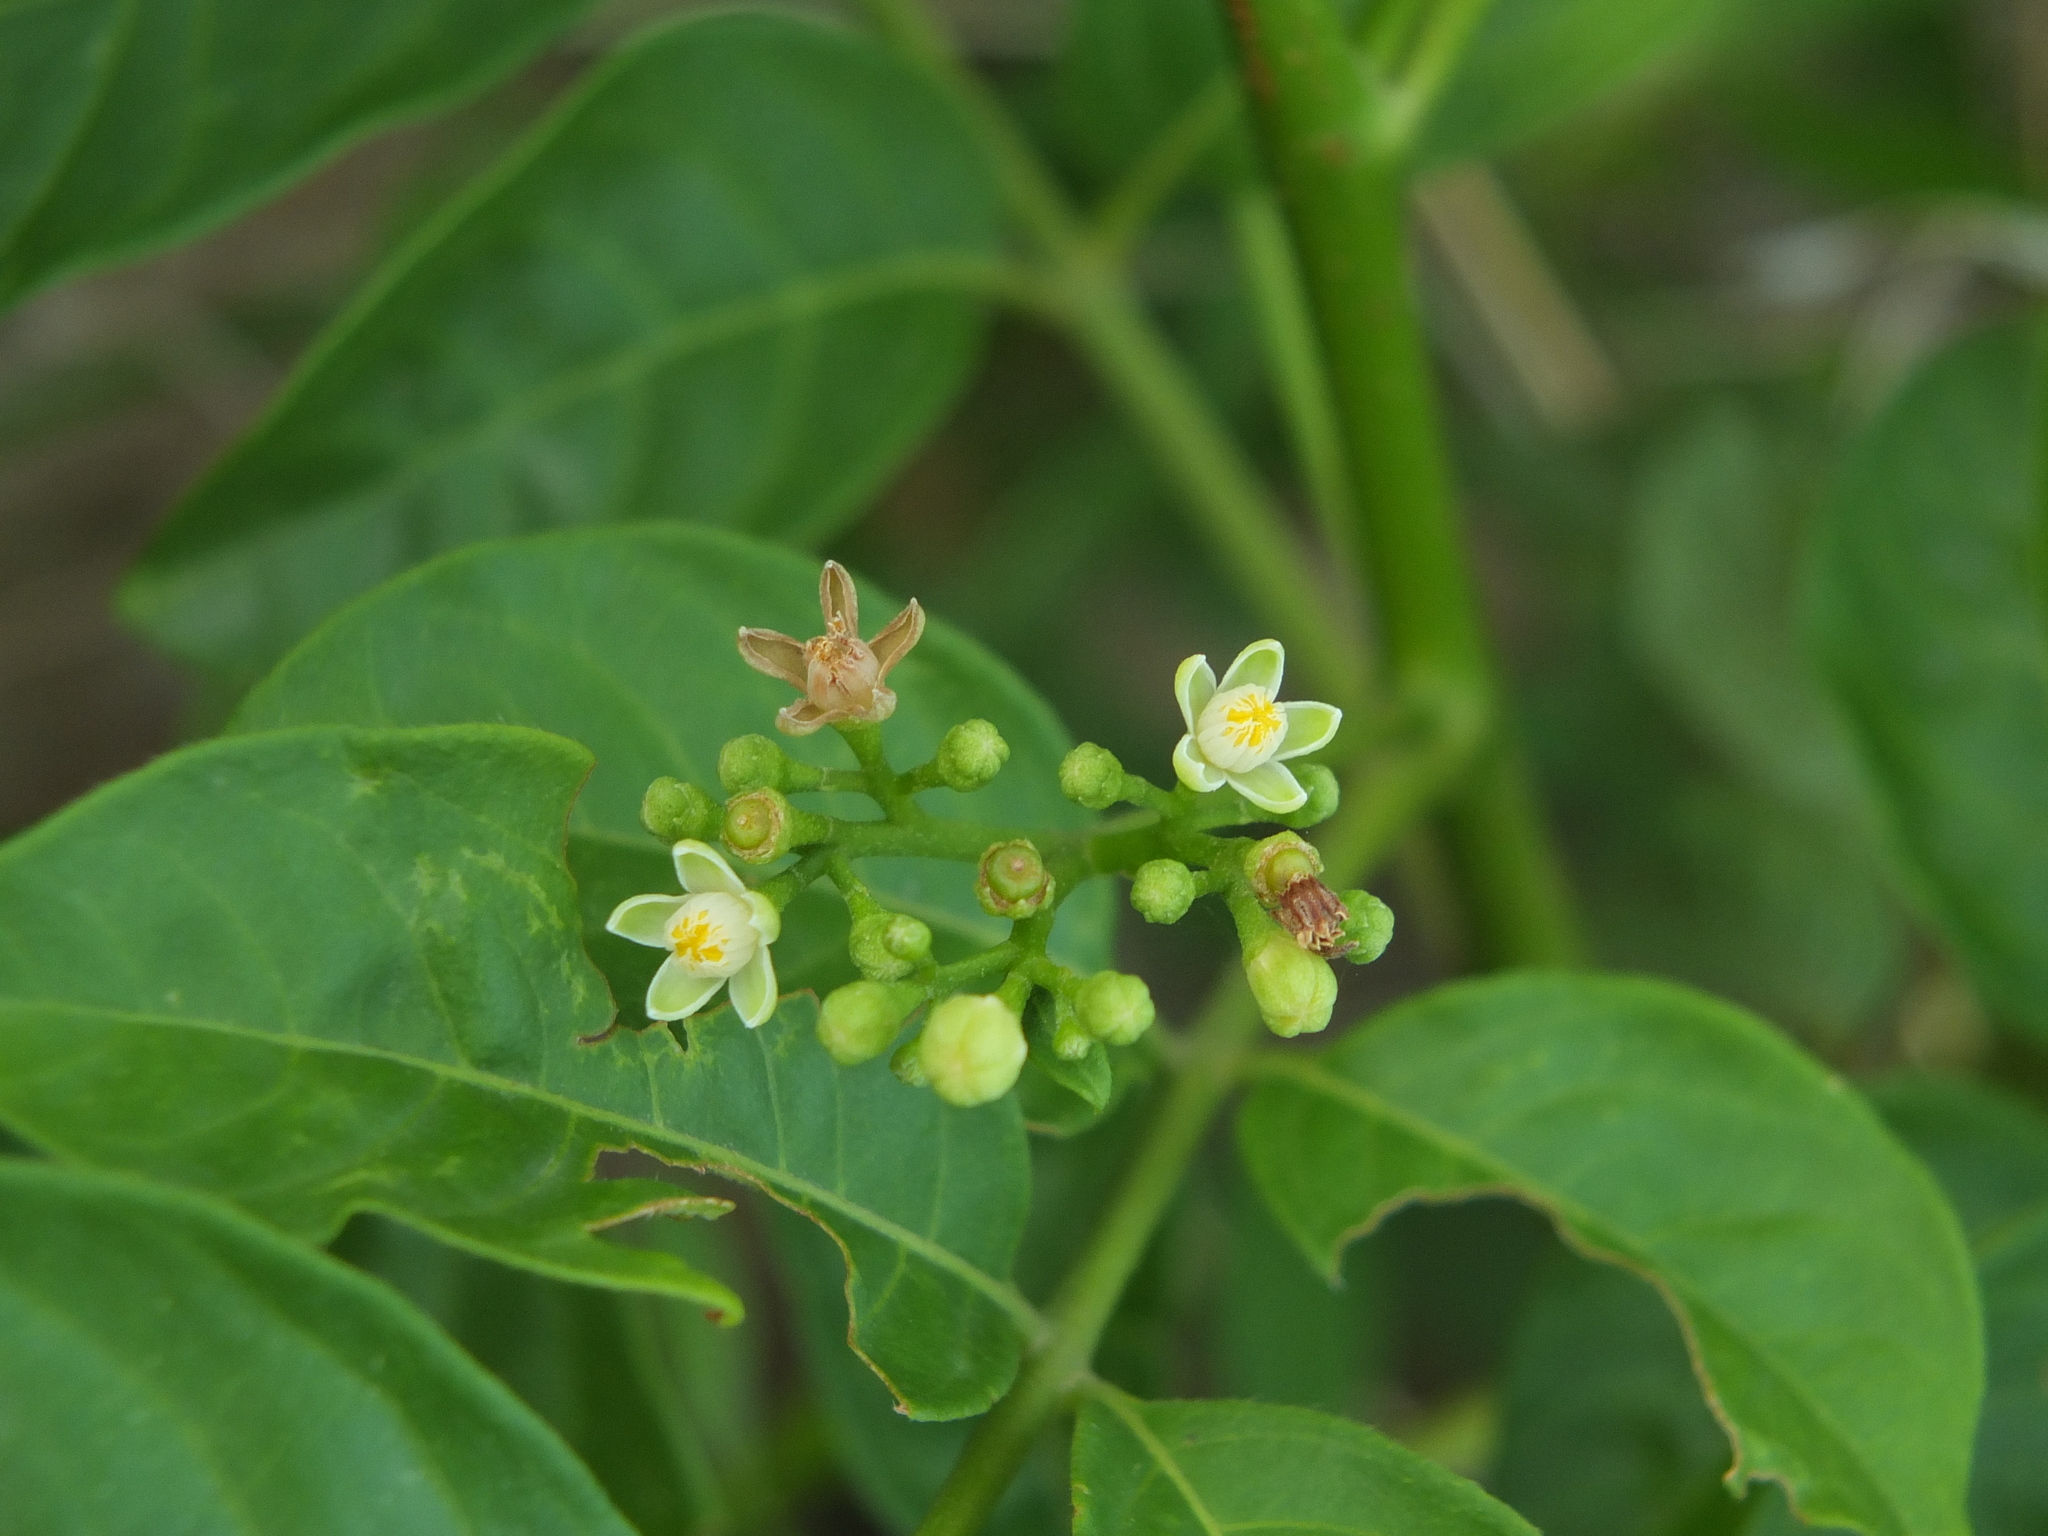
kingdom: Plantae
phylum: Tracheophyta
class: Magnoliopsida
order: Sapindales
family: Meliaceae
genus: Cipadessa
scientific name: Cipadessa baccifera
